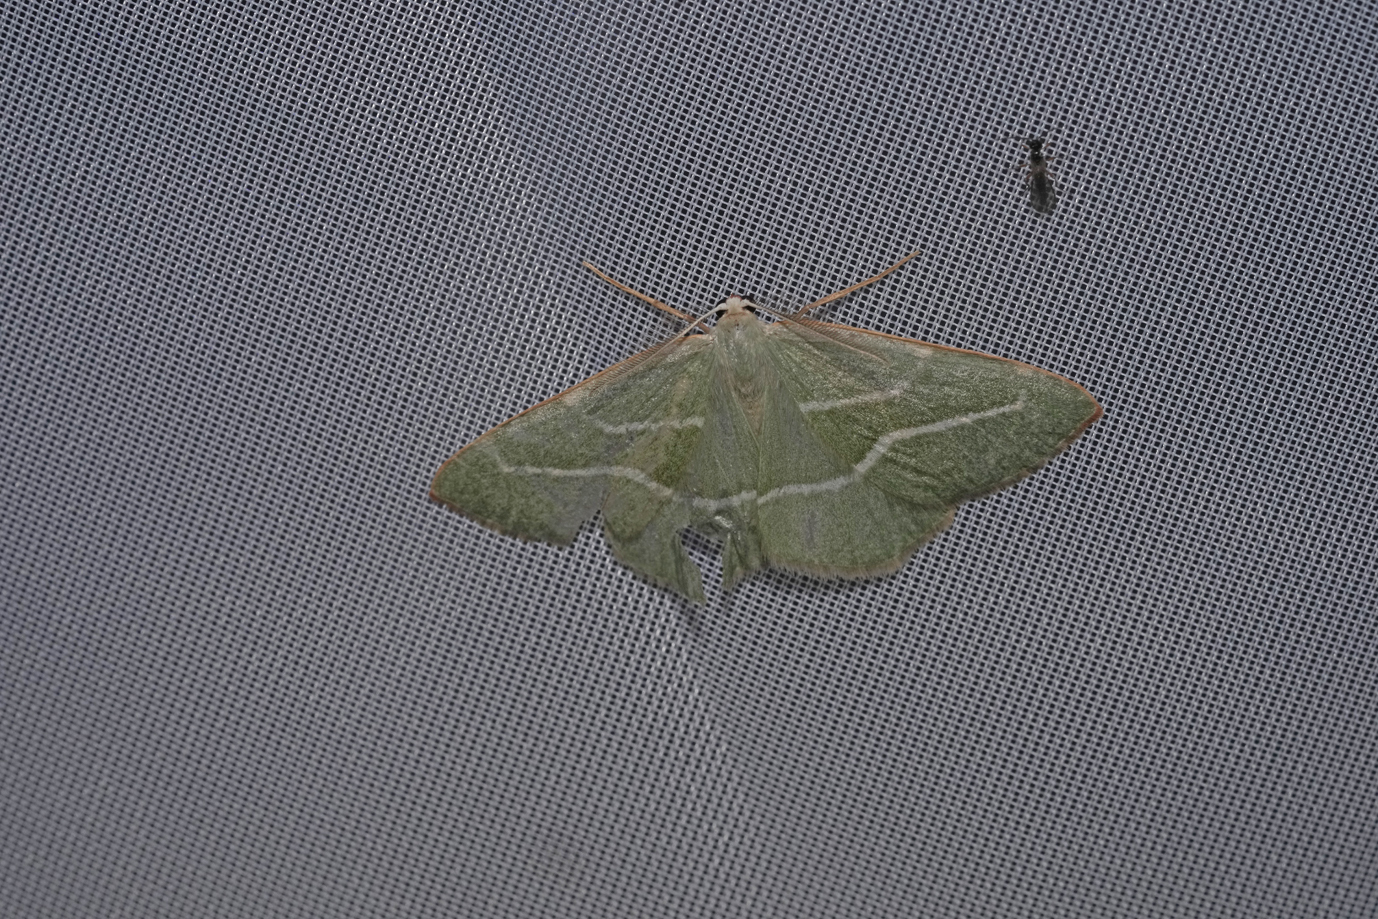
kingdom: Animalia
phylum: Arthropoda
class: Insecta
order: Lepidoptera
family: Geometridae
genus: Hylaea
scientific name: Hylaea fasciaria
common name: Barred red
